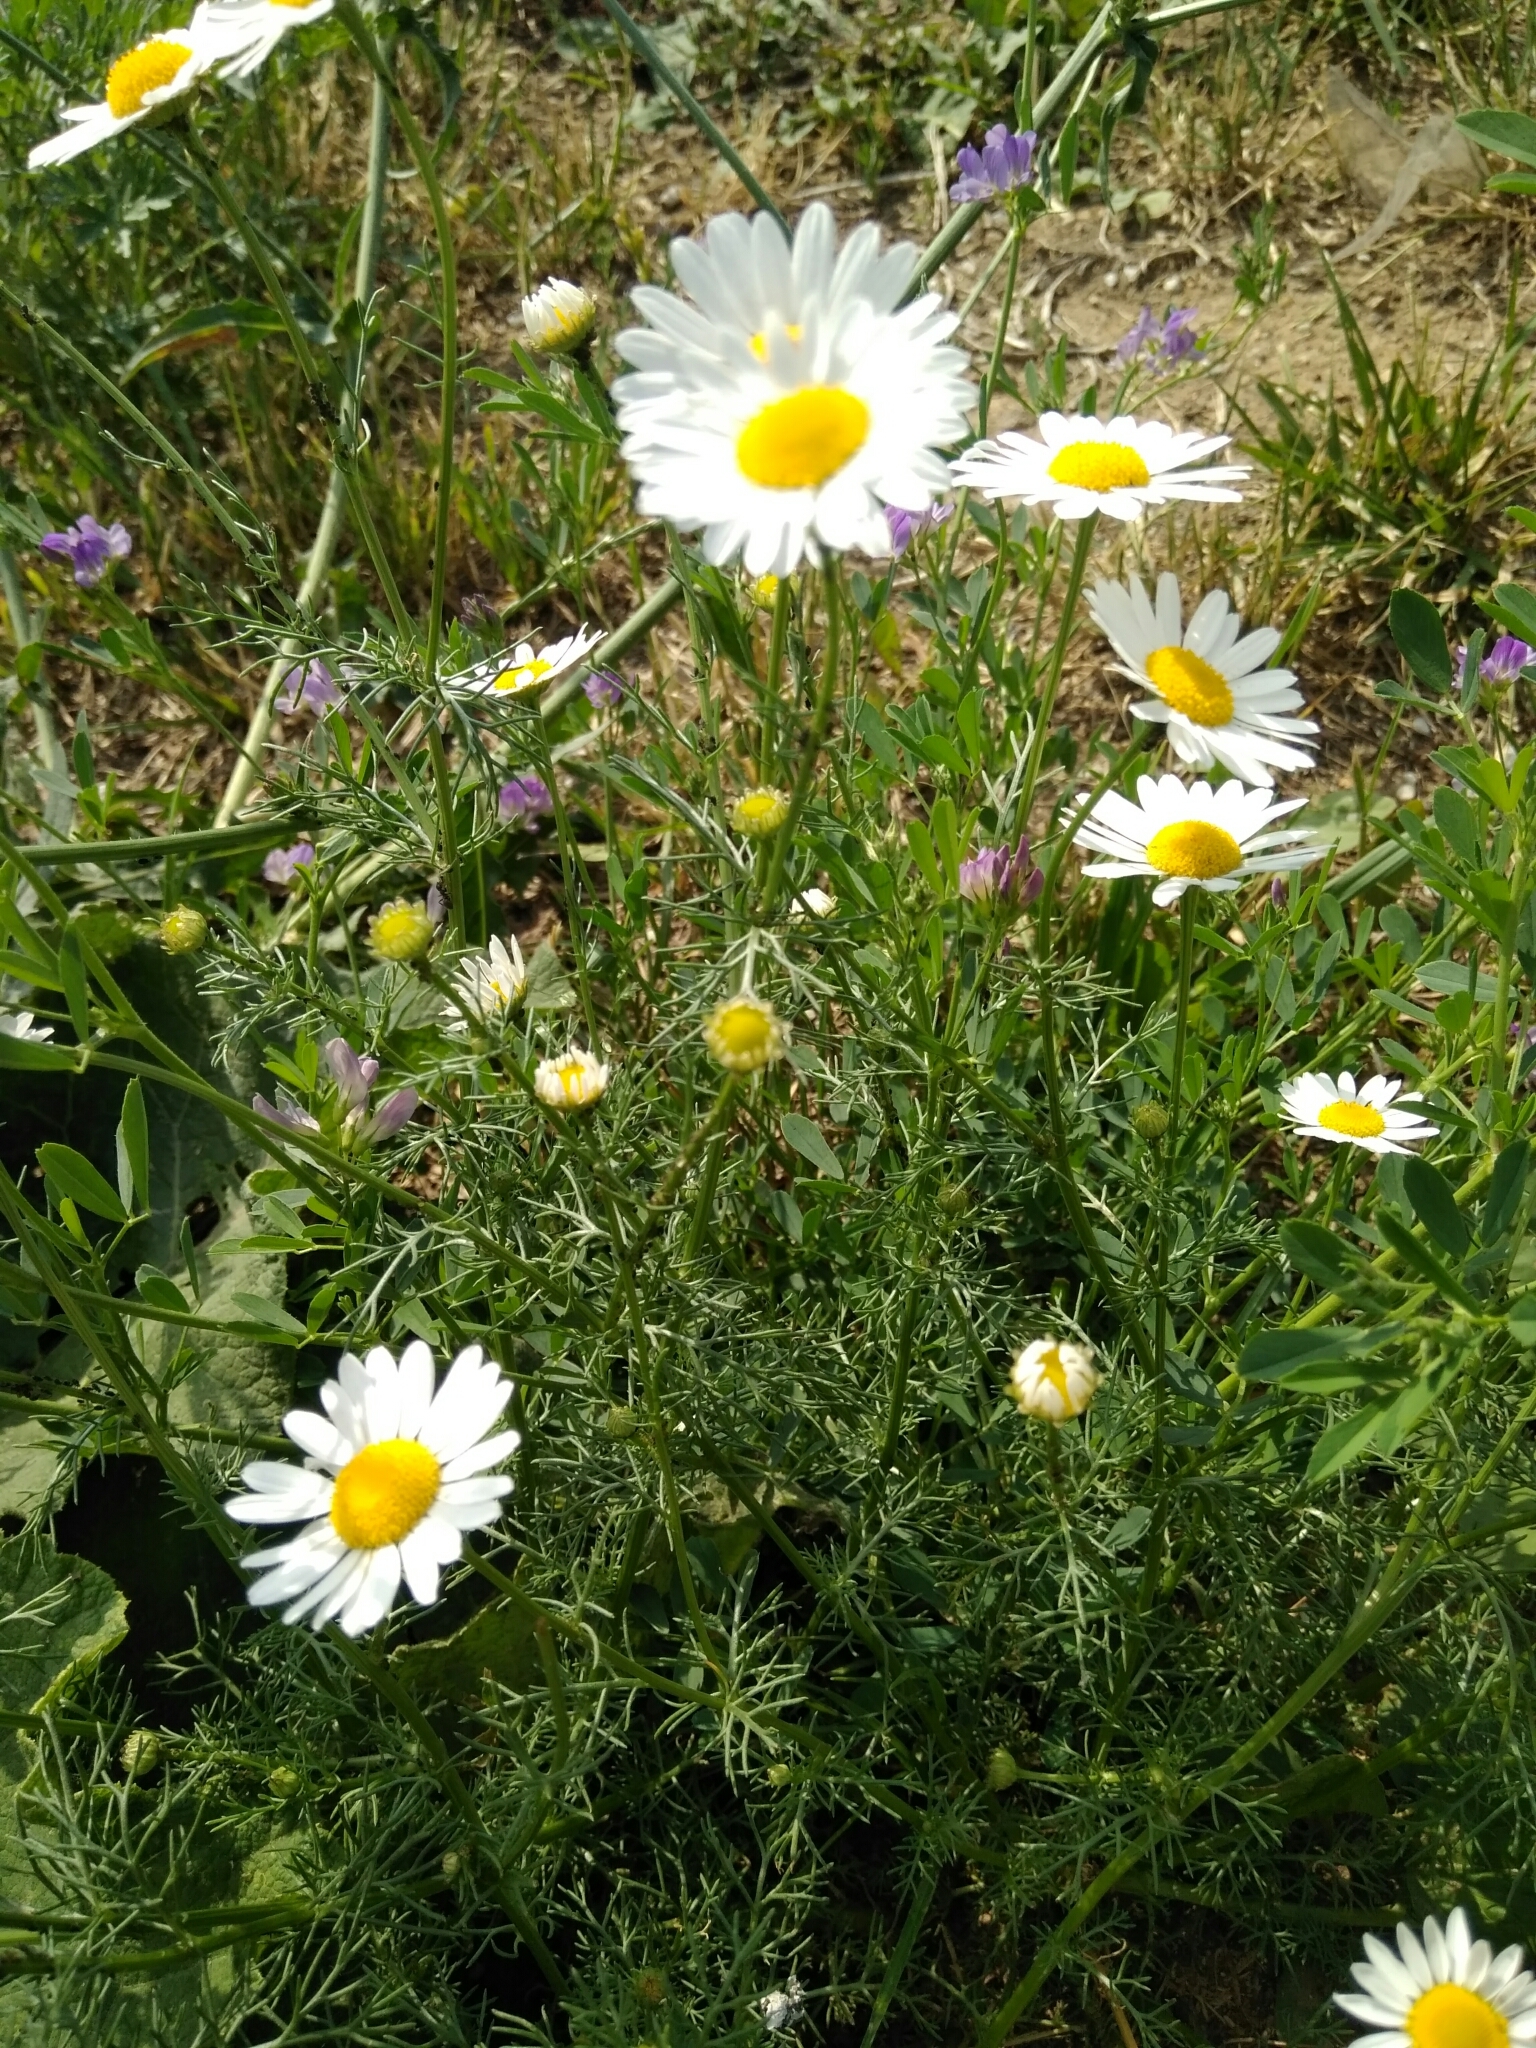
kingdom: Plantae
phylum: Tracheophyta
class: Magnoliopsida
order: Asterales
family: Asteraceae
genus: Tripleurospermum
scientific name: Tripleurospermum inodorum
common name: Scentless mayweed
